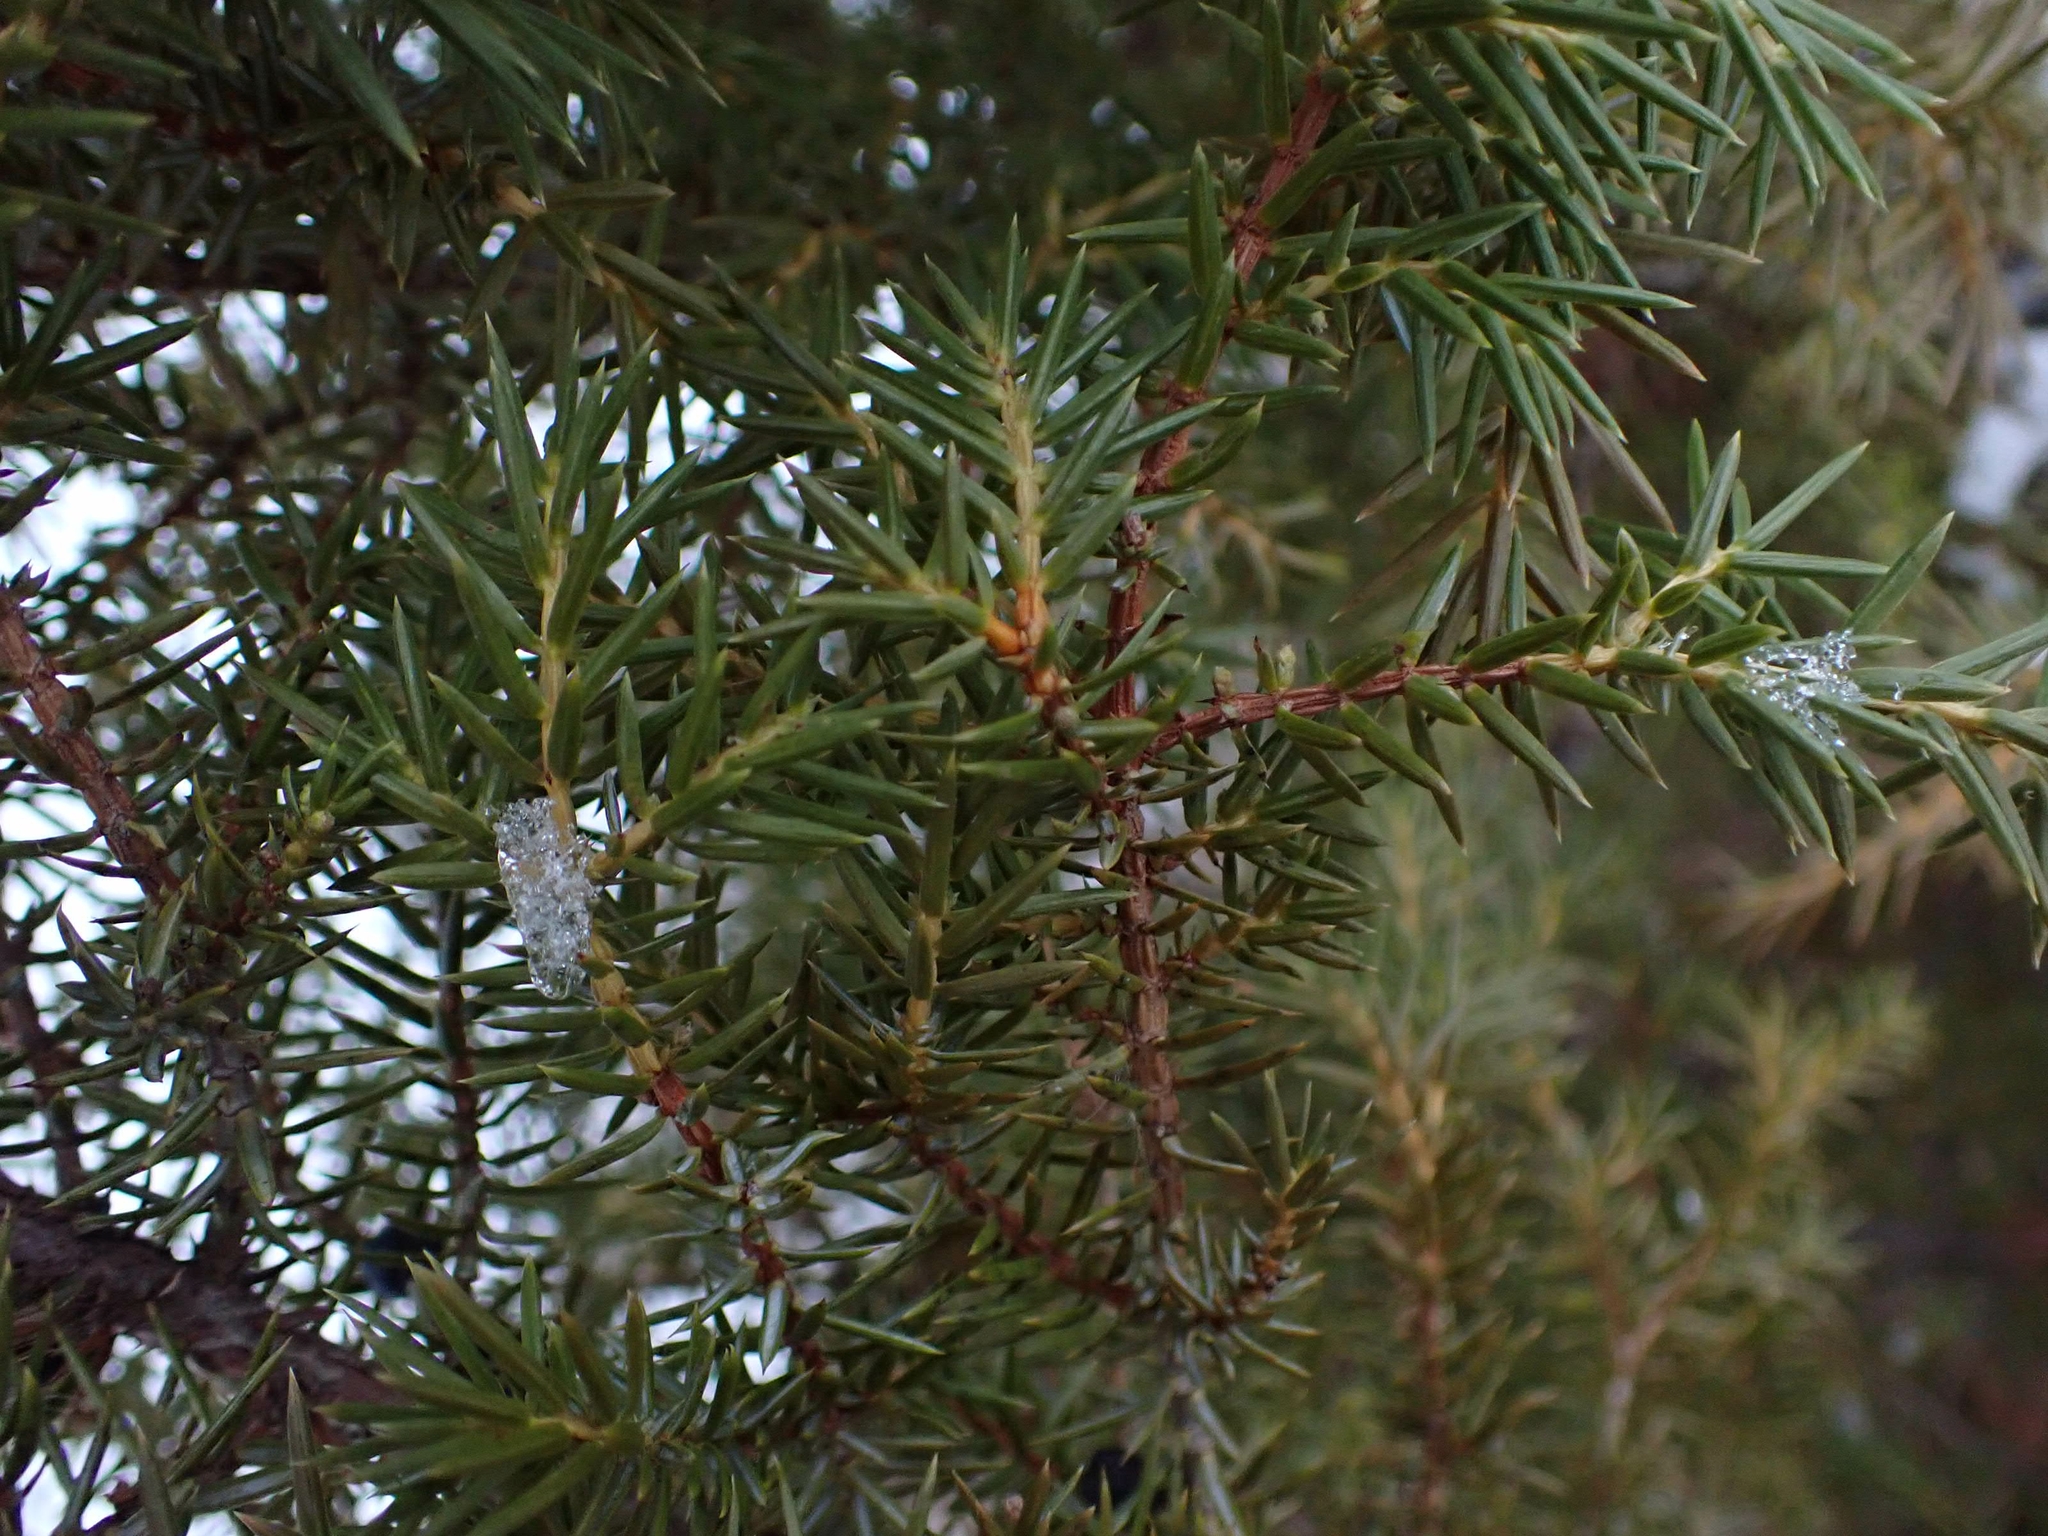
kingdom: Plantae
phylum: Tracheophyta
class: Pinopsida
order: Pinales
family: Cupressaceae
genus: Juniperus
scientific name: Juniperus communis
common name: Common juniper
